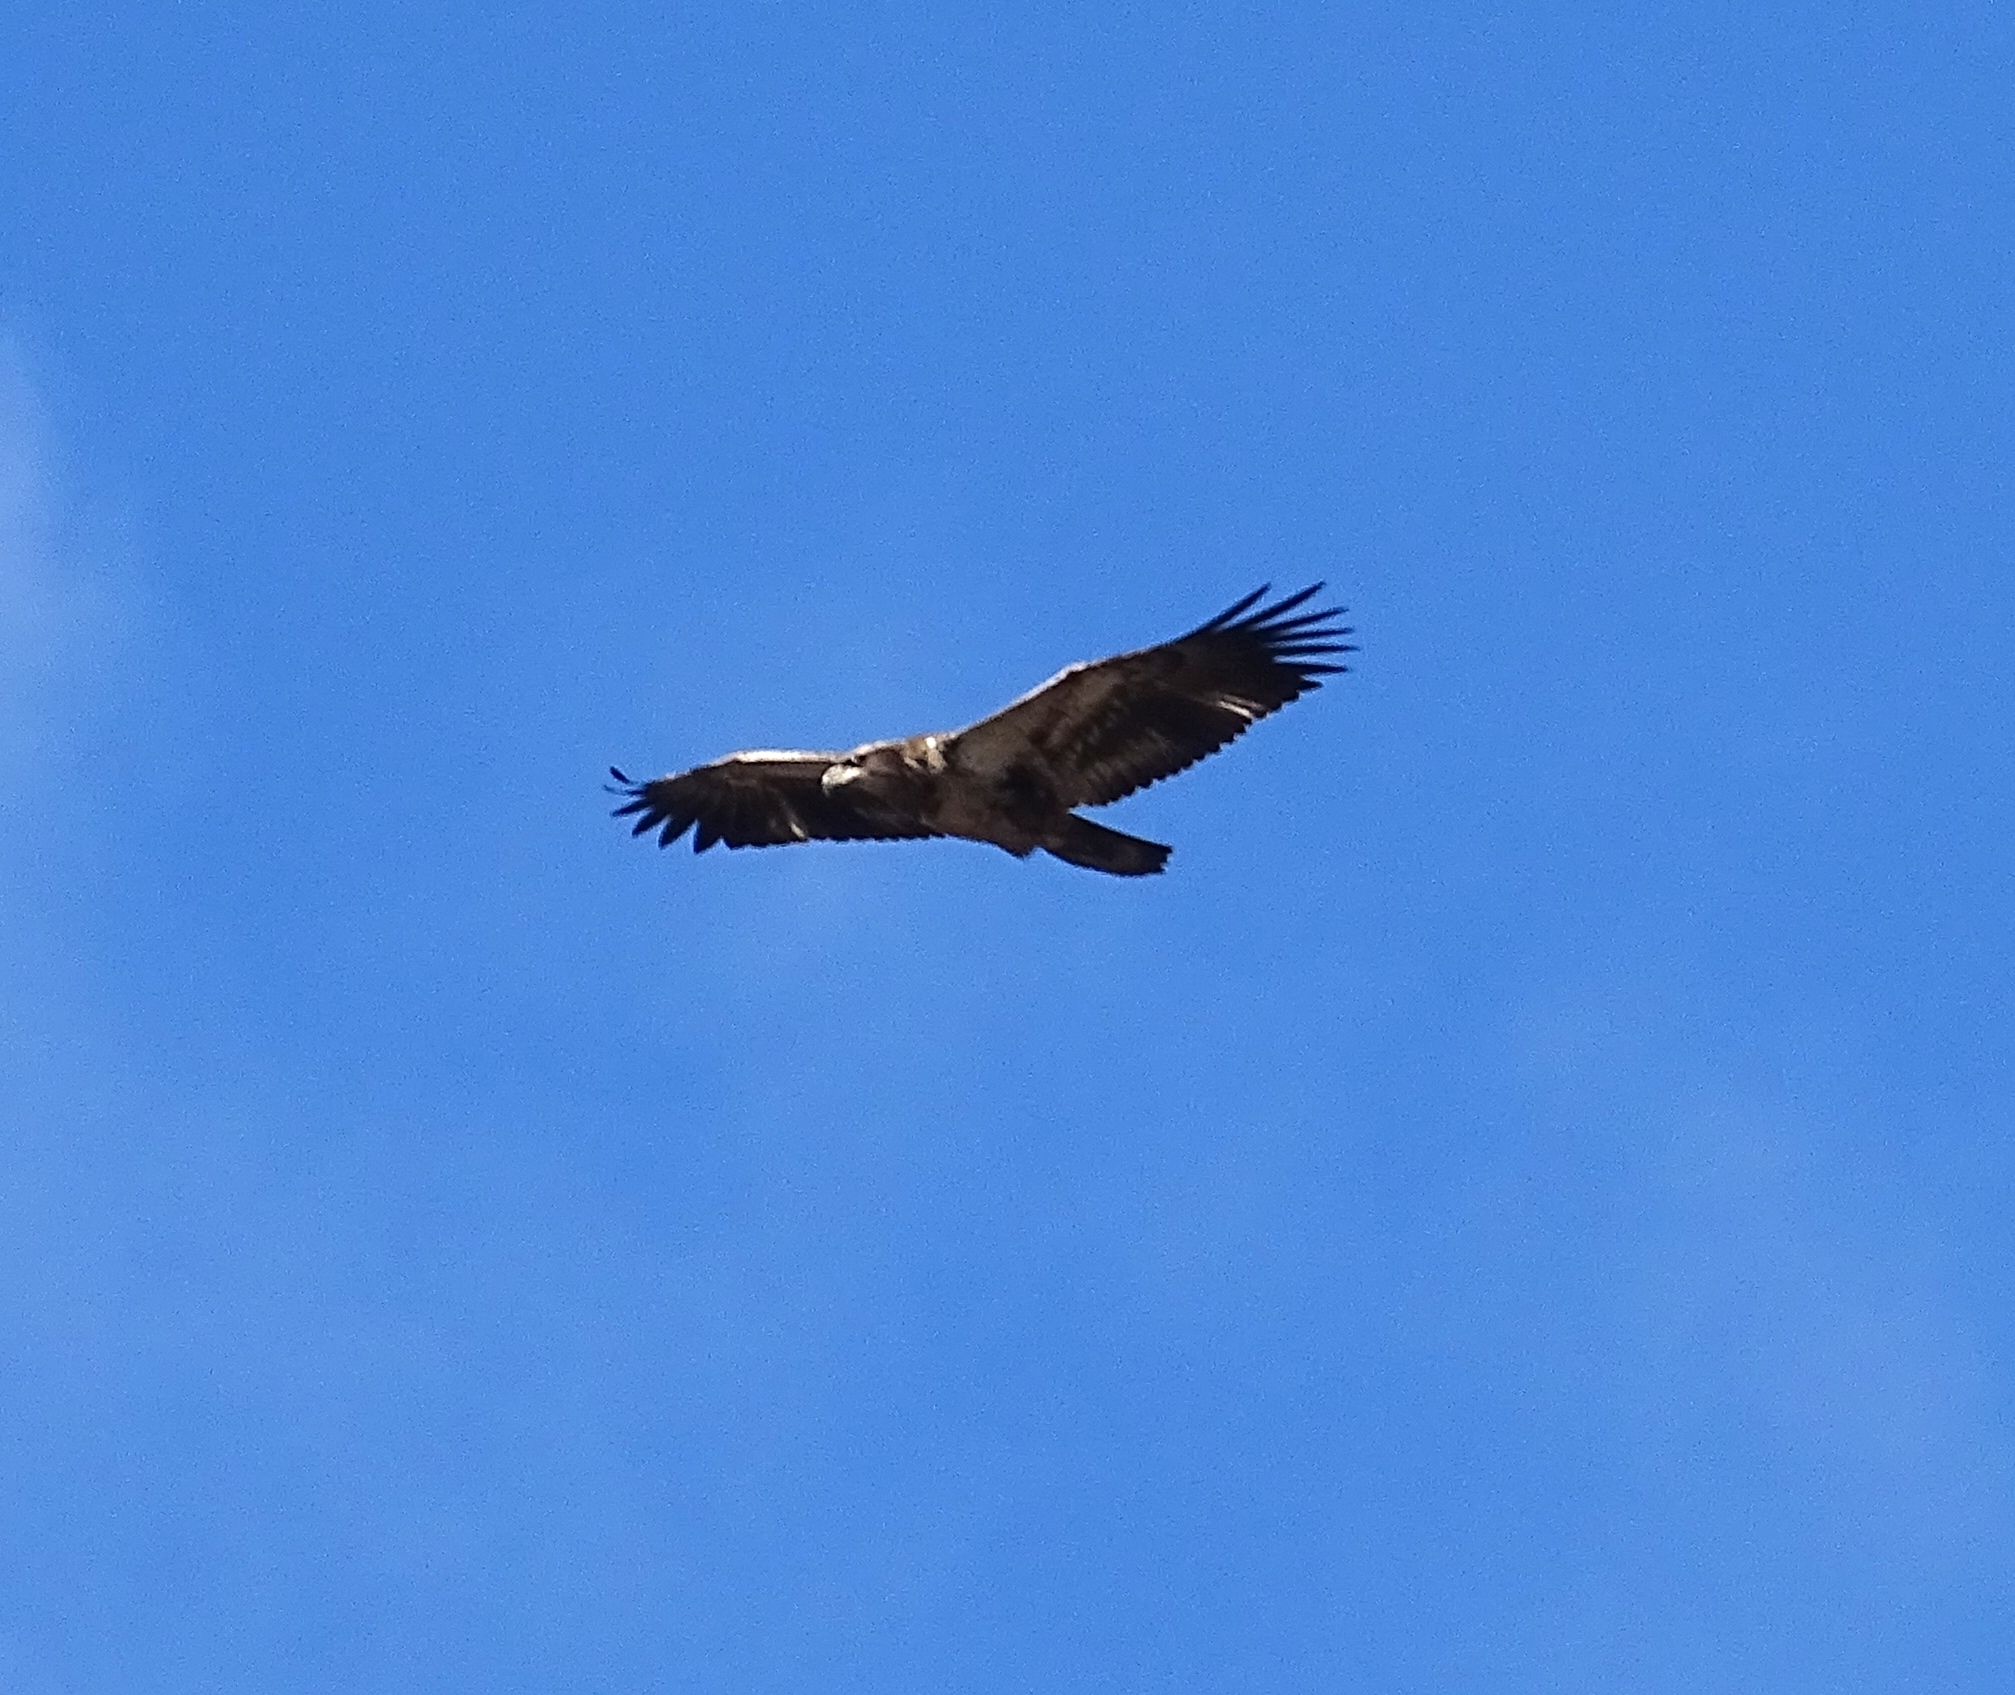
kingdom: Animalia
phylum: Chordata
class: Aves
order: Accipitriformes
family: Accipitridae
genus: Haliaeetus
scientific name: Haliaeetus leucocephalus
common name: Bald eagle
